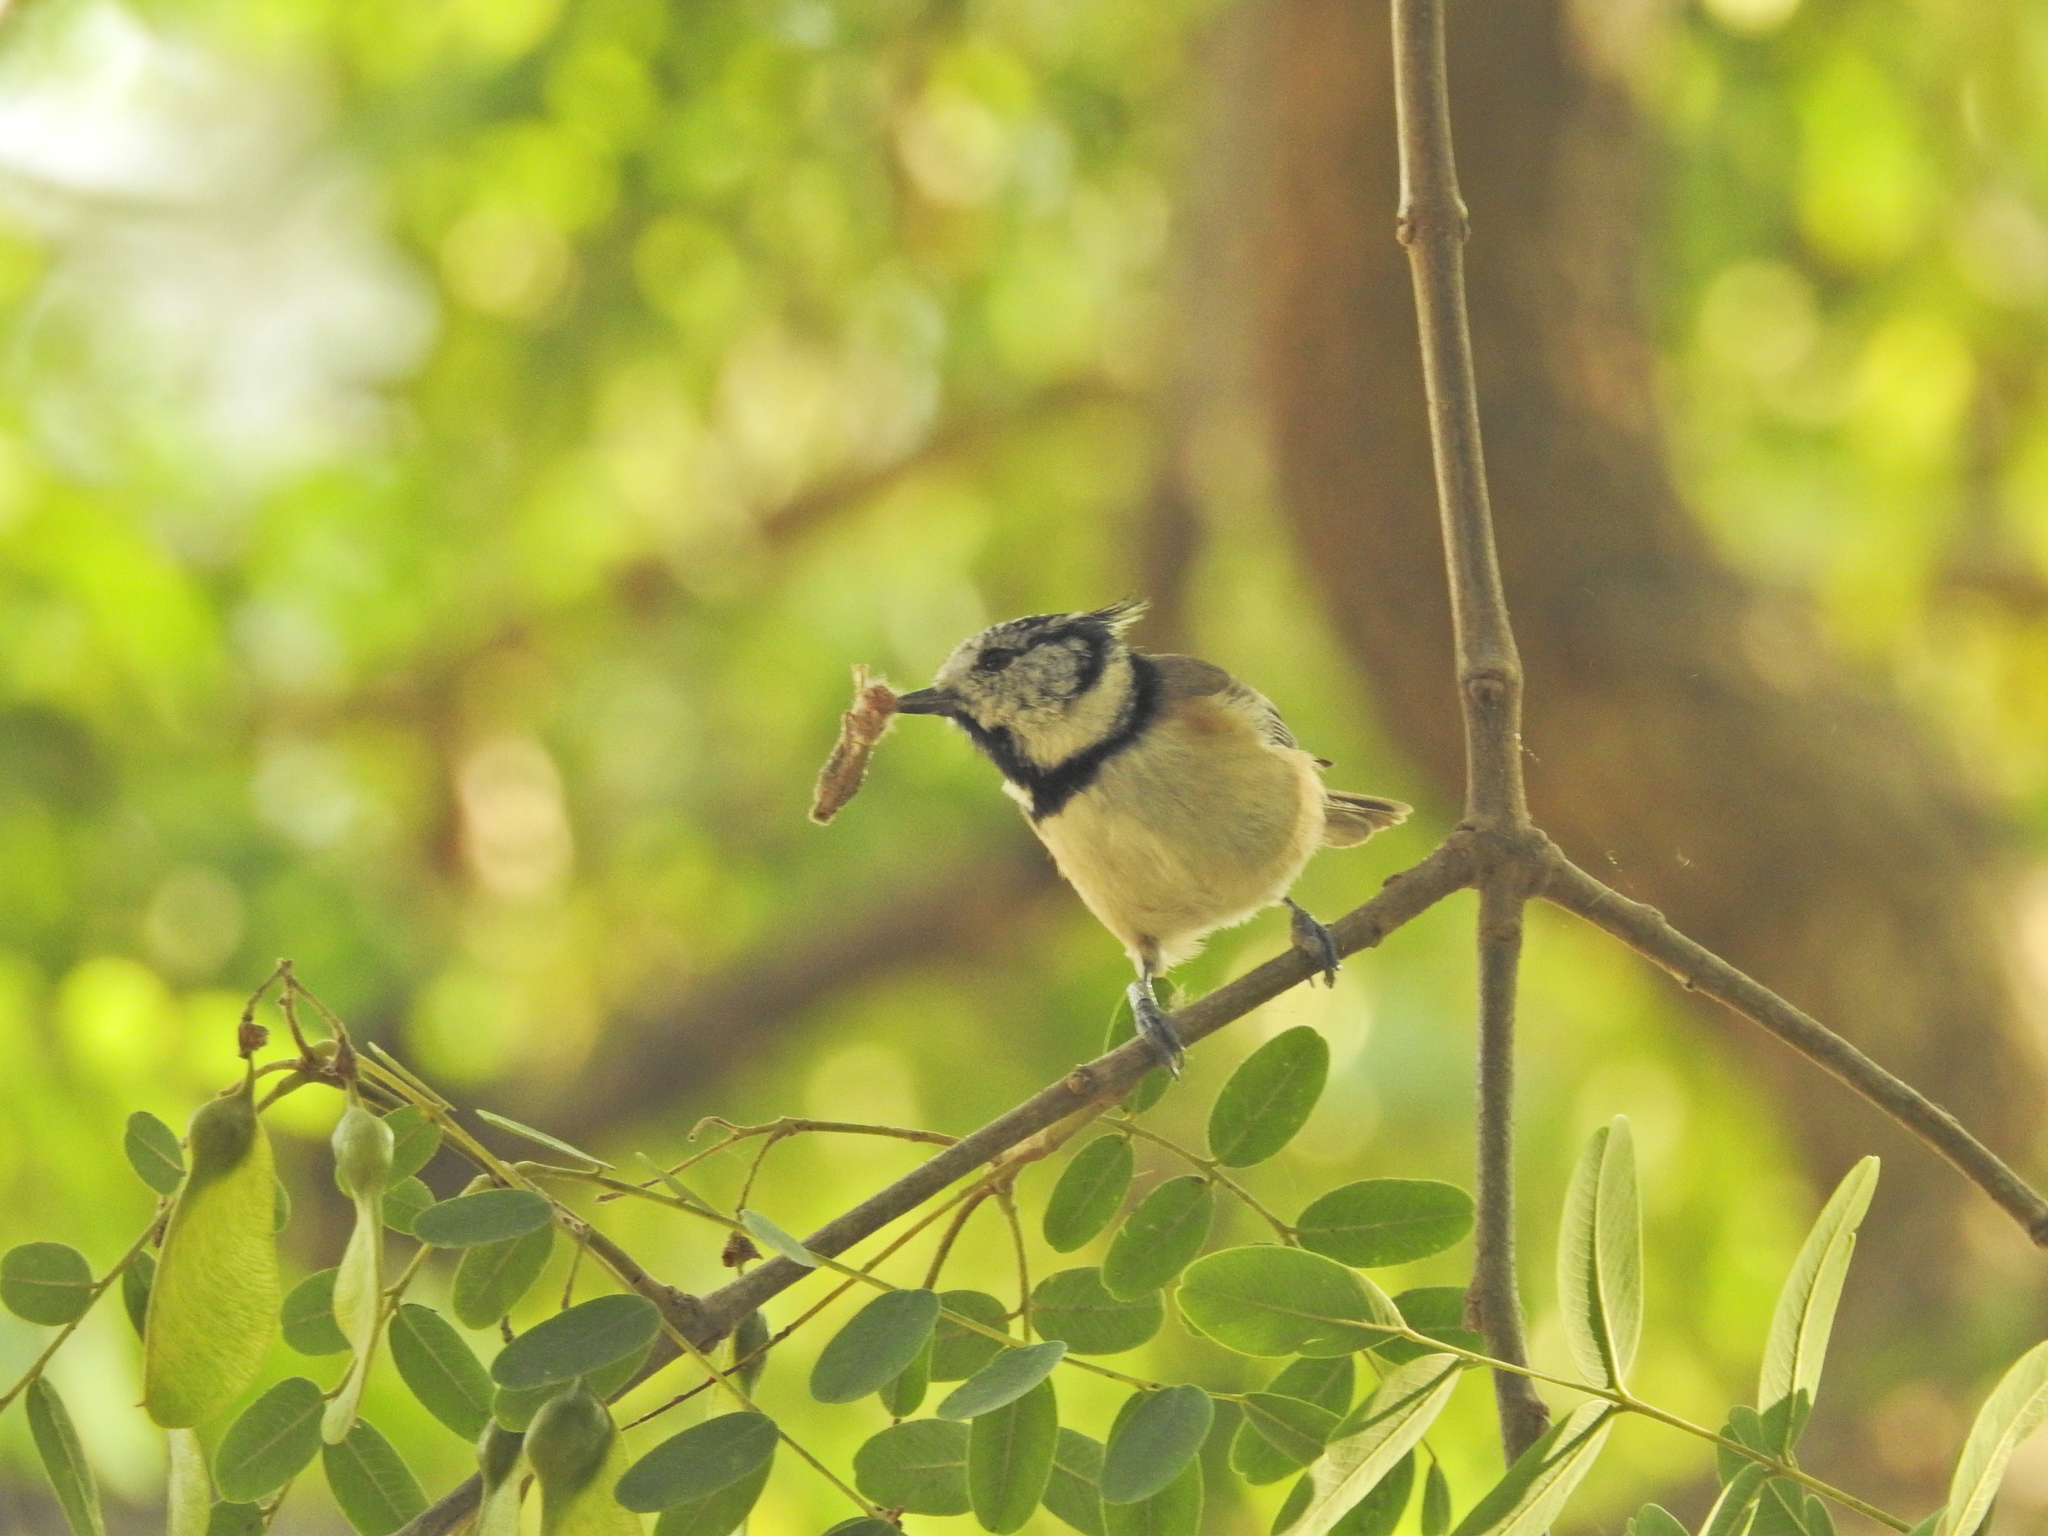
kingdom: Animalia
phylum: Chordata
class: Aves
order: Passeriformes
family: Paridae
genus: Lophophanes
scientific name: Lophophanes cristatus
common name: European crested tit
